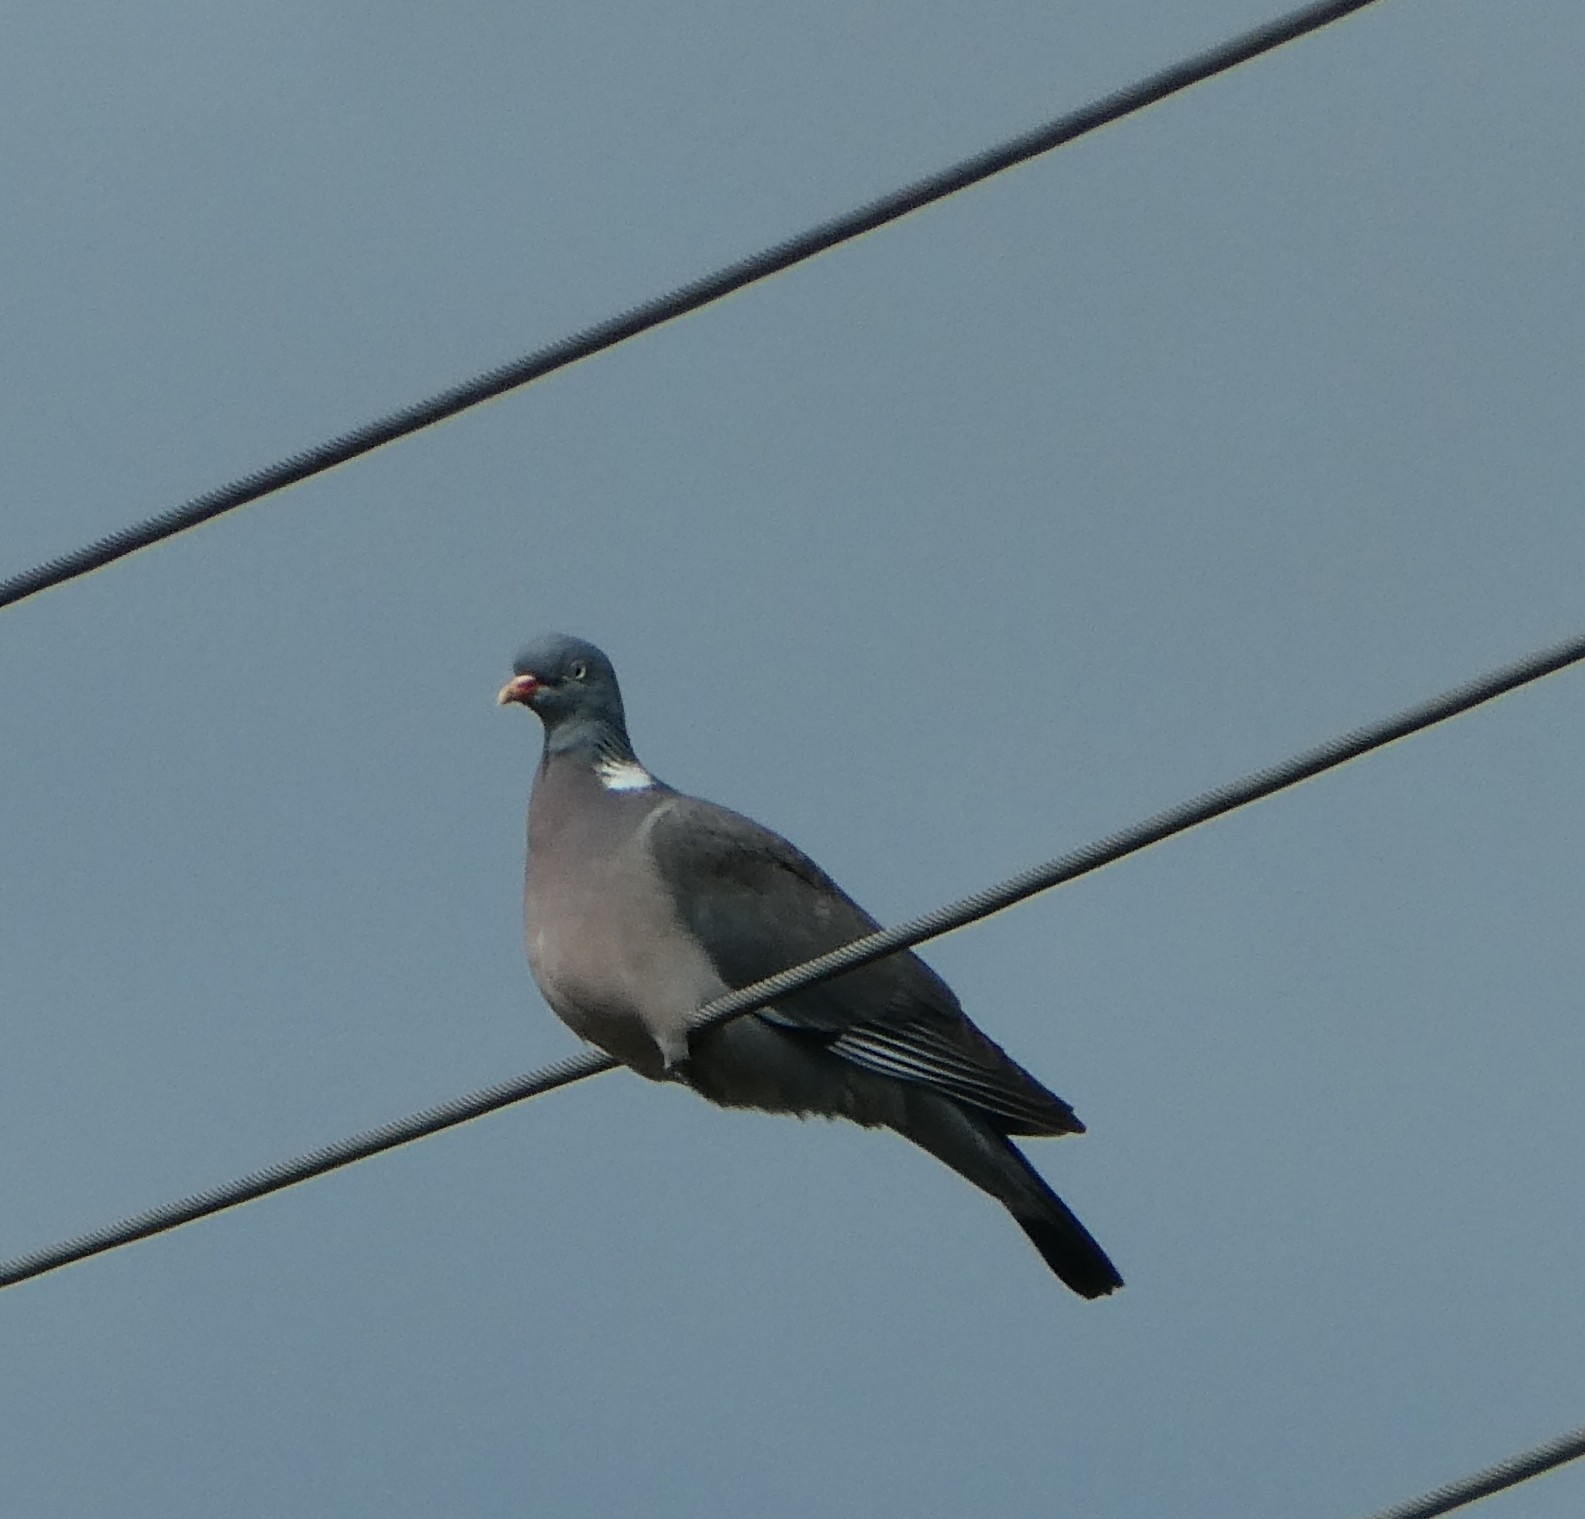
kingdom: Animalia
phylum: Chordata
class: Aves
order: Columbiformes
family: Columbidae
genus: Columba
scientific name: Columba palumbus
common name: Common wood pigeon
